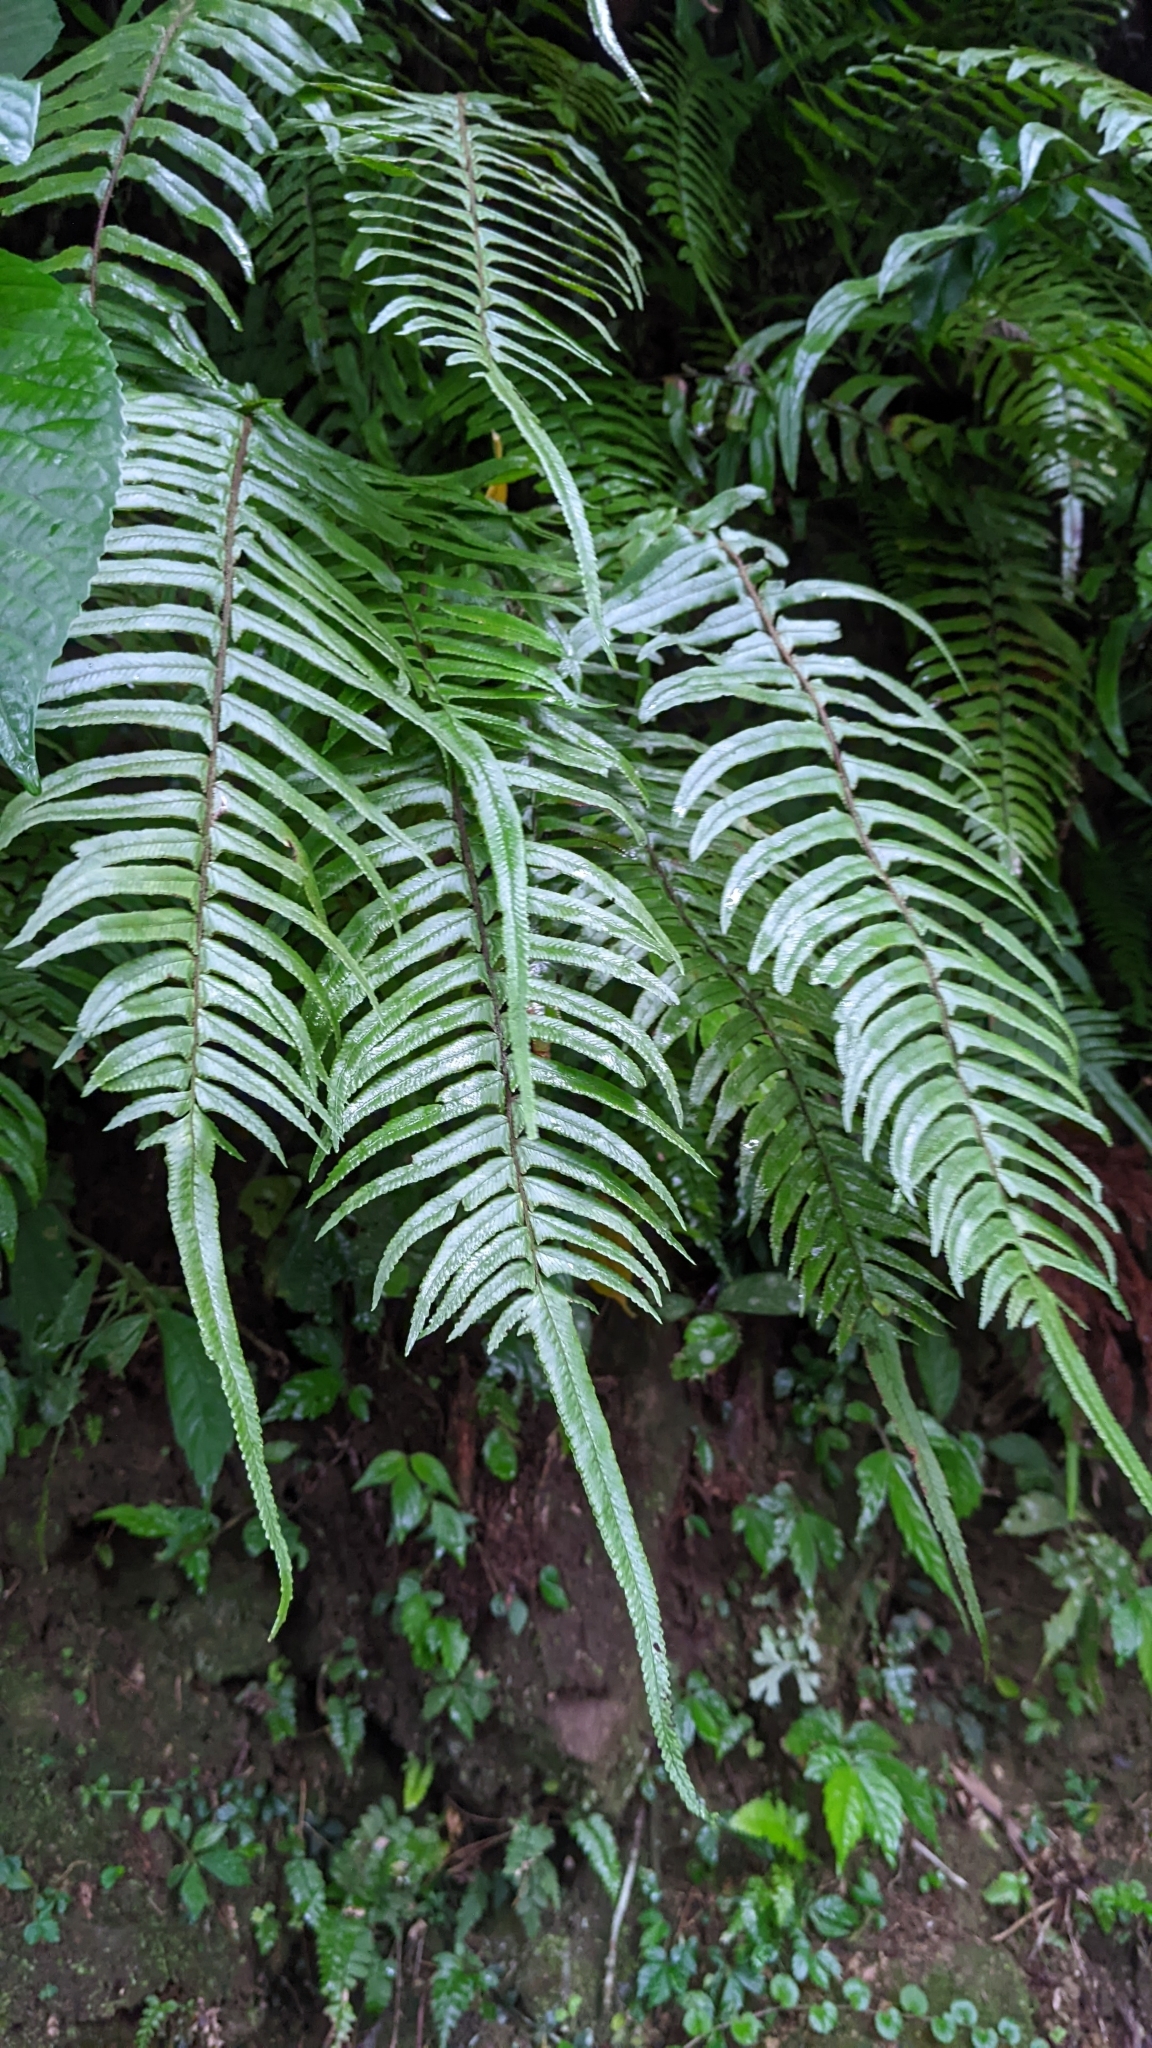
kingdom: Plantae
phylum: Tracheophyta
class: Polypodiopsida
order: Polypodiales
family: Dennstaedtiaceae
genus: Microlepia
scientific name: Microlepia hookeriana
